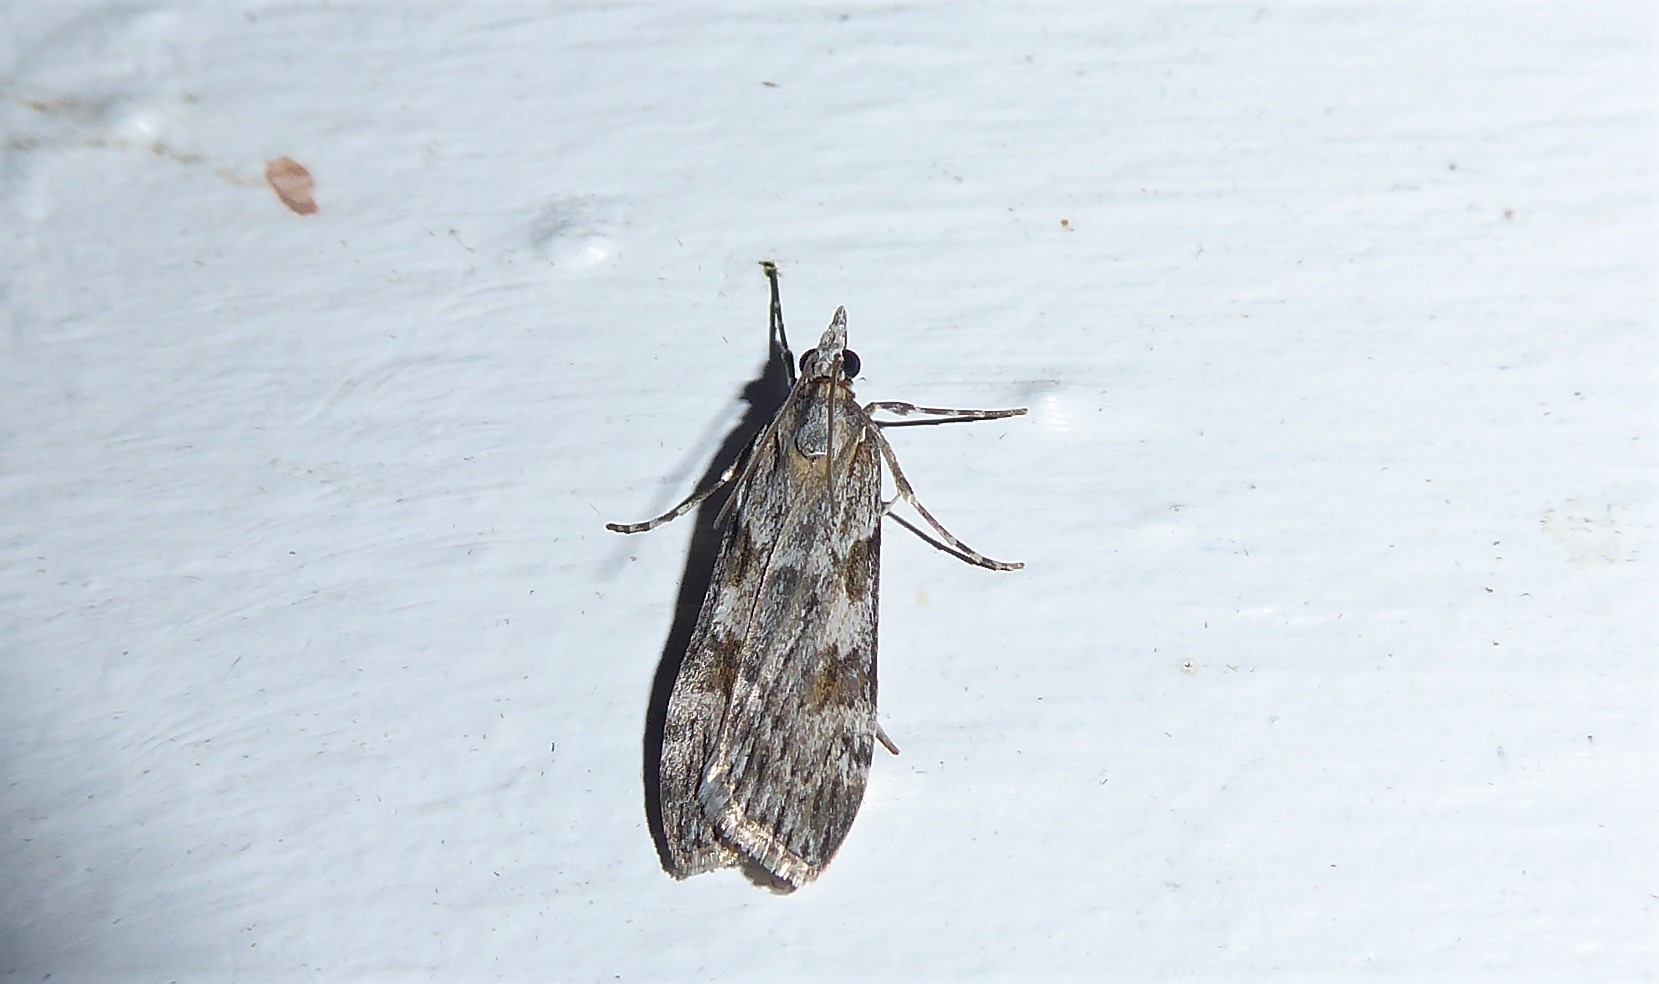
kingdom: Animalia
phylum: Arthropoda
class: Insecta
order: Lepidoptera
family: Crambidae
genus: Scoparia
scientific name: Scoparia halopis
